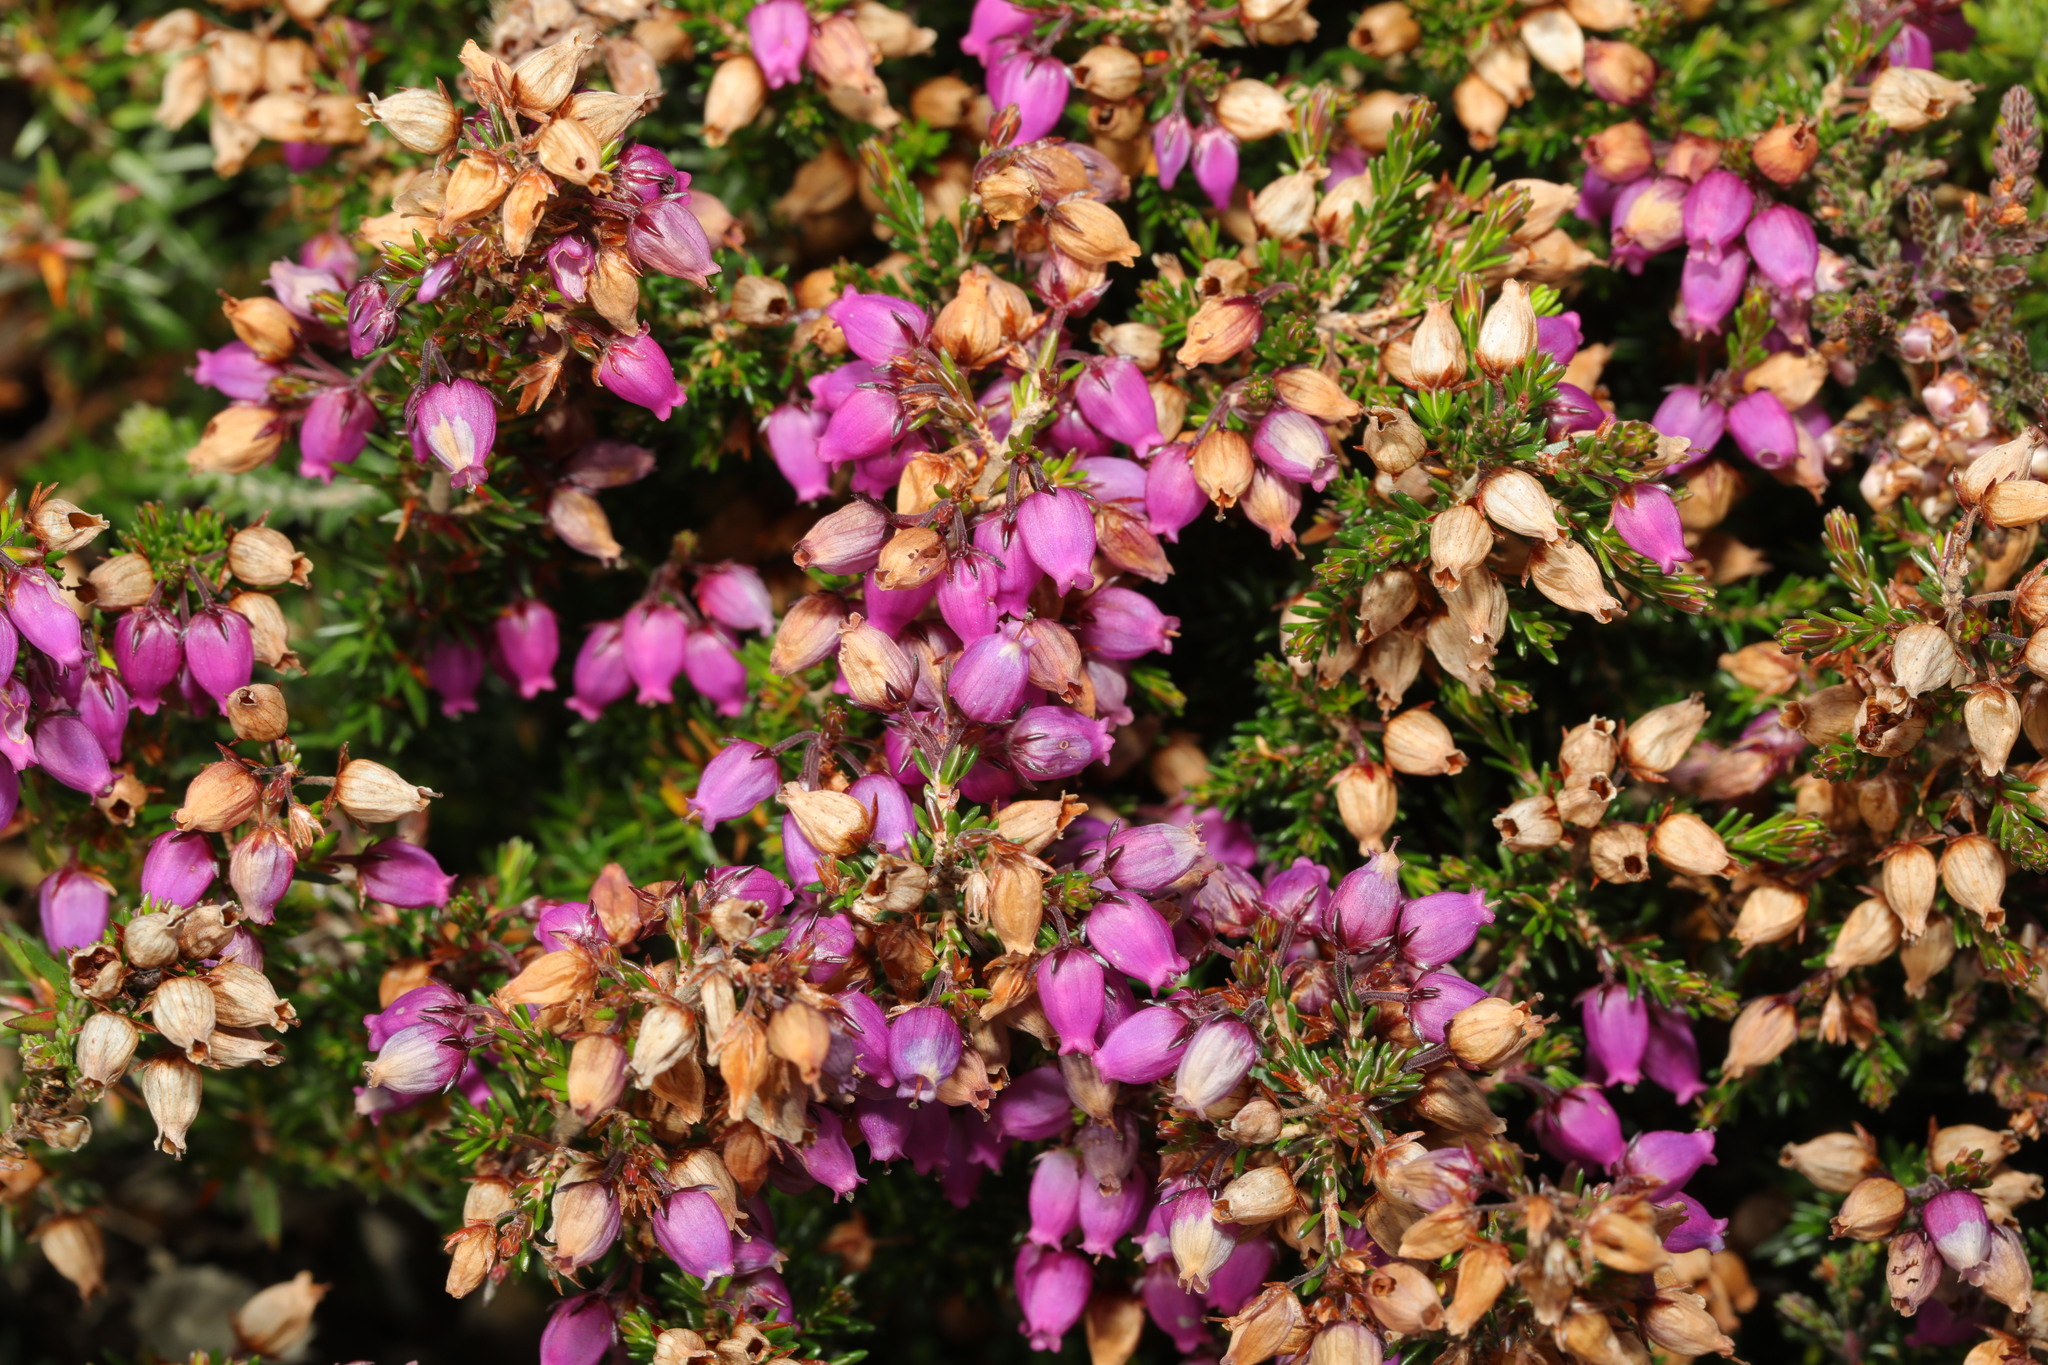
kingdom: Plantae
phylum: Tracheophyta
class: Magnoliopsida
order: Ericales
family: Ericaceae
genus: Erica
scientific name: Erica cinerea
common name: Bell heather
